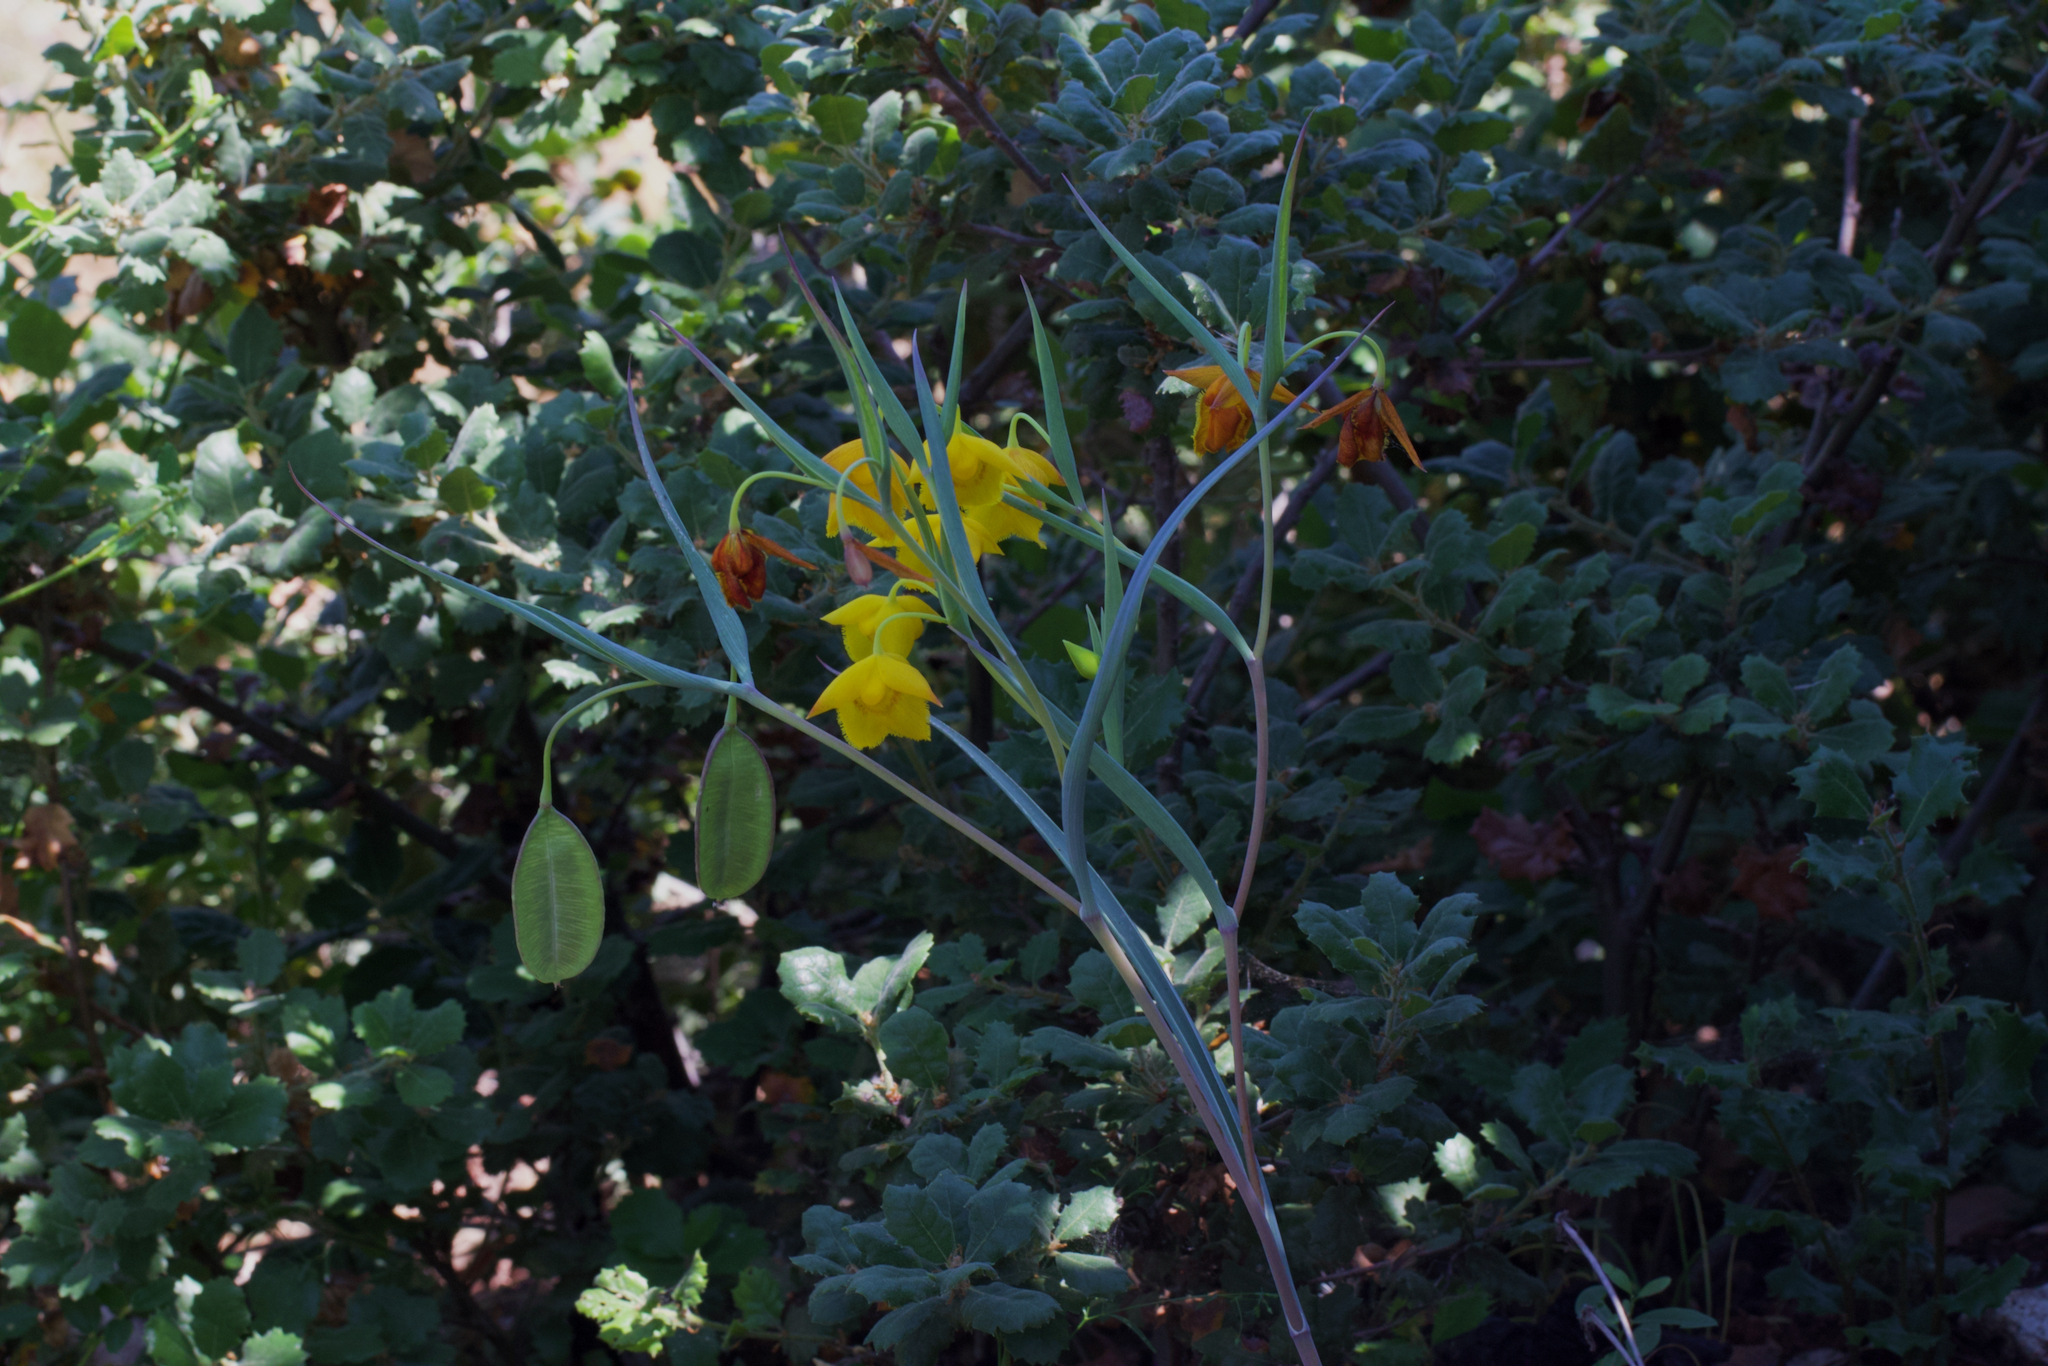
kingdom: Plantae
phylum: Tracheophyta
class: Liliopsida
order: Liliales
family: Liliaceae
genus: Calochortus
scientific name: Calochortus amabilis
